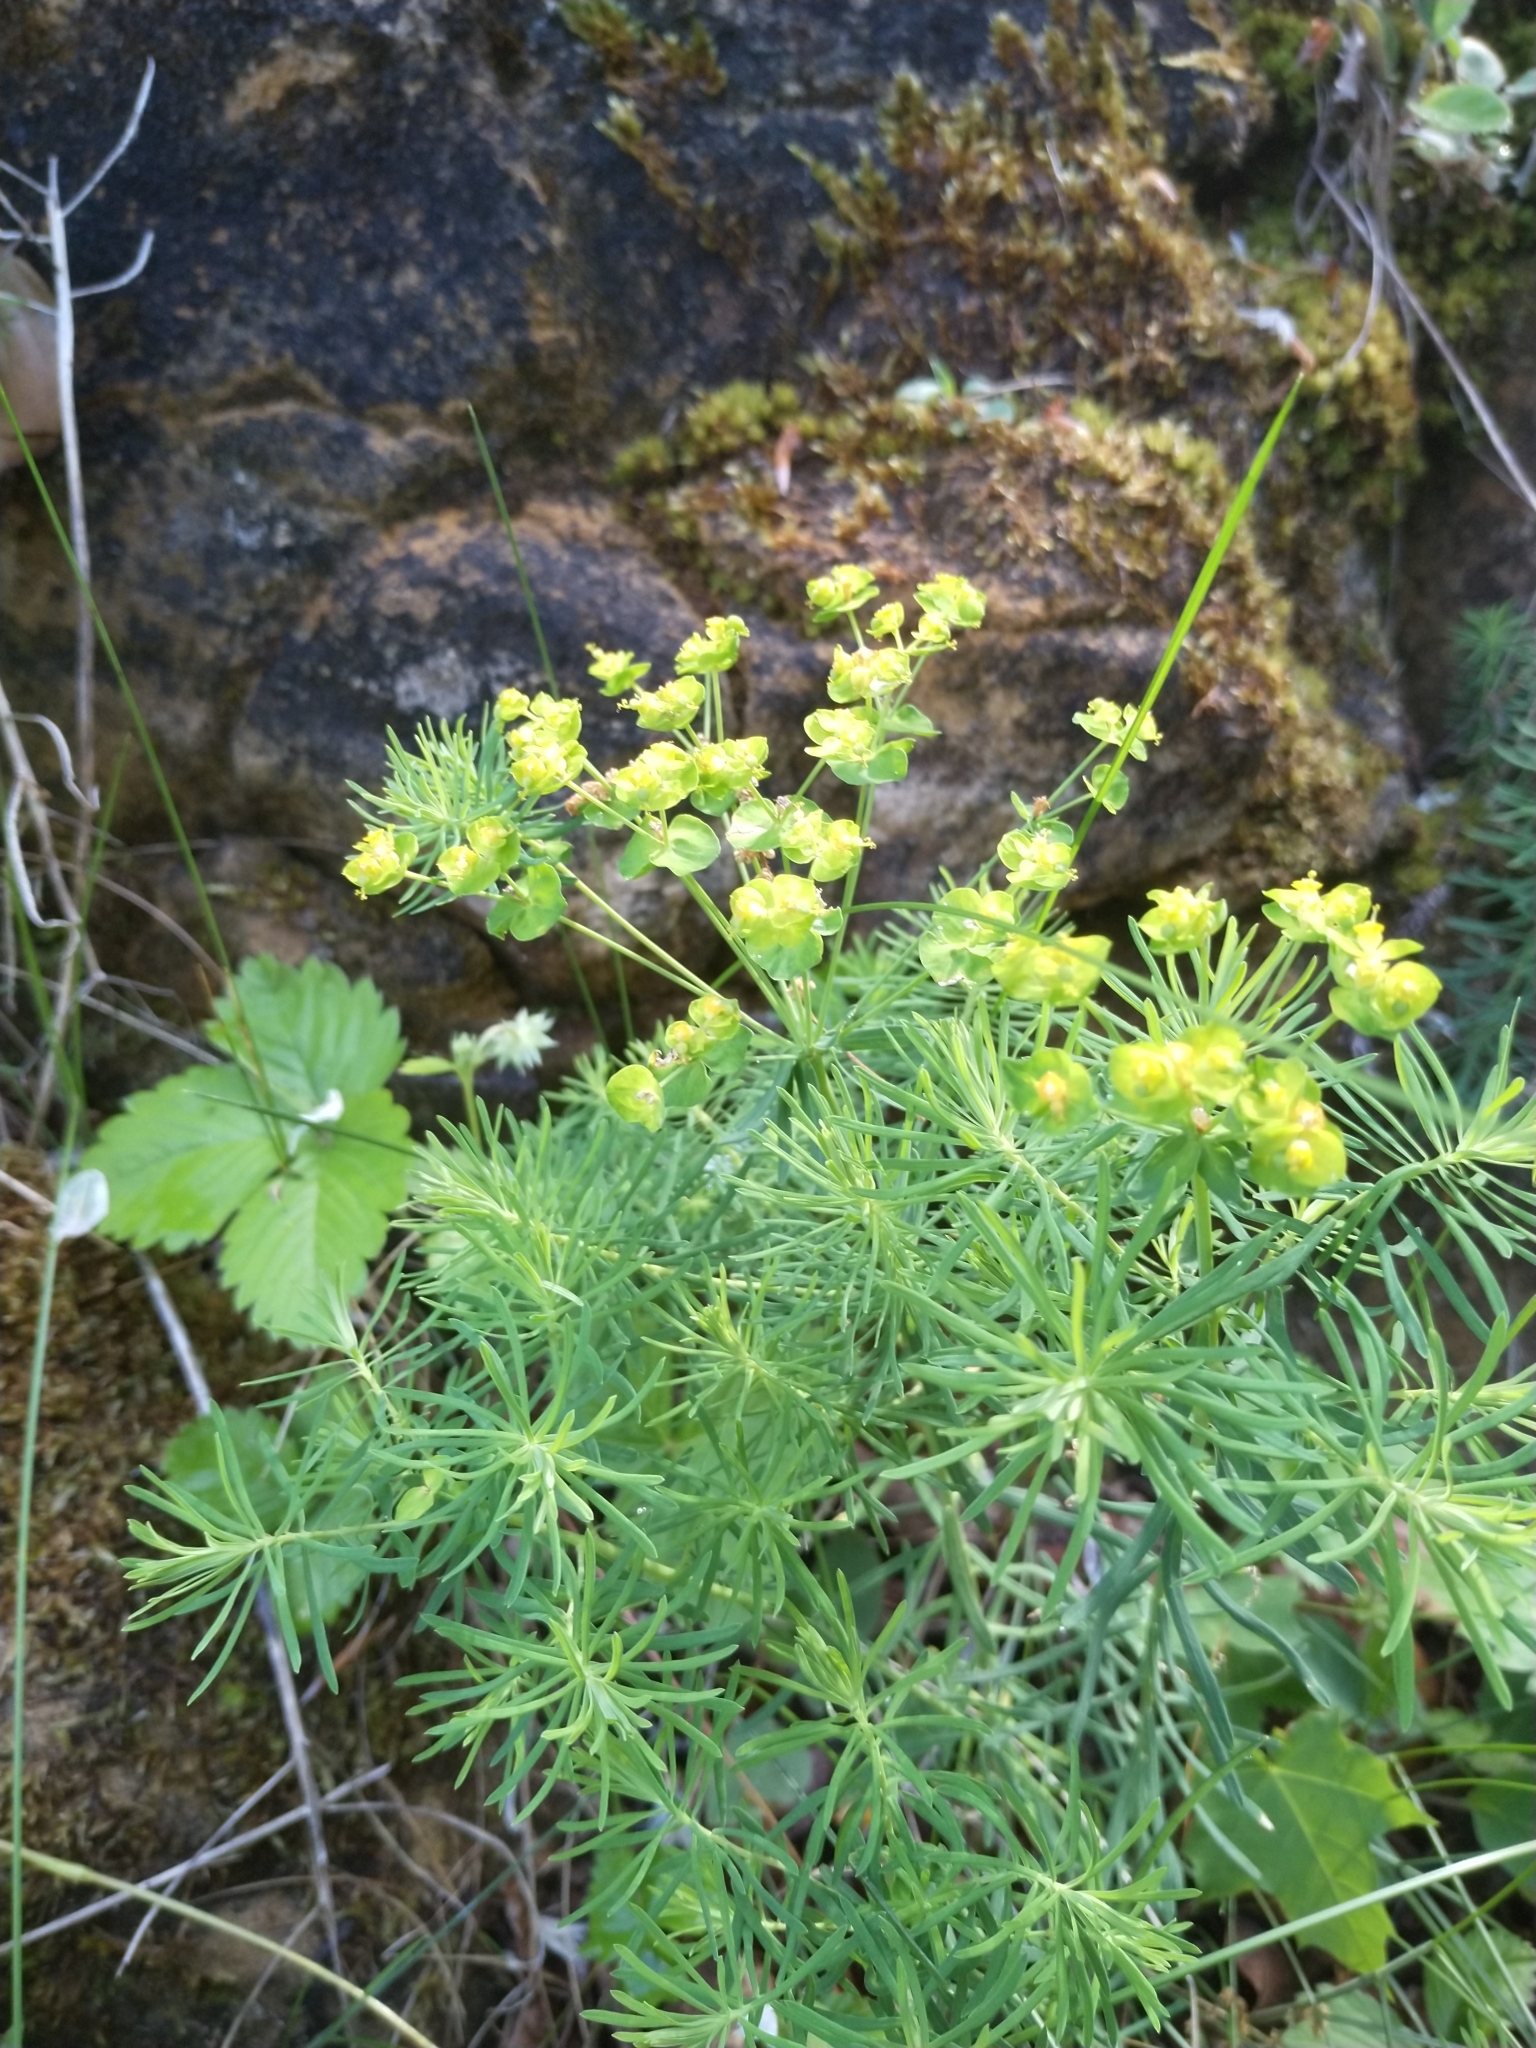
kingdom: Plantae
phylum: Tracheophyta
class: Magnoliopsida
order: Malpighiales
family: Euphorbiaceae
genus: Euphorbia
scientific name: Euphorbia cyparissias
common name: Cypress spurge
